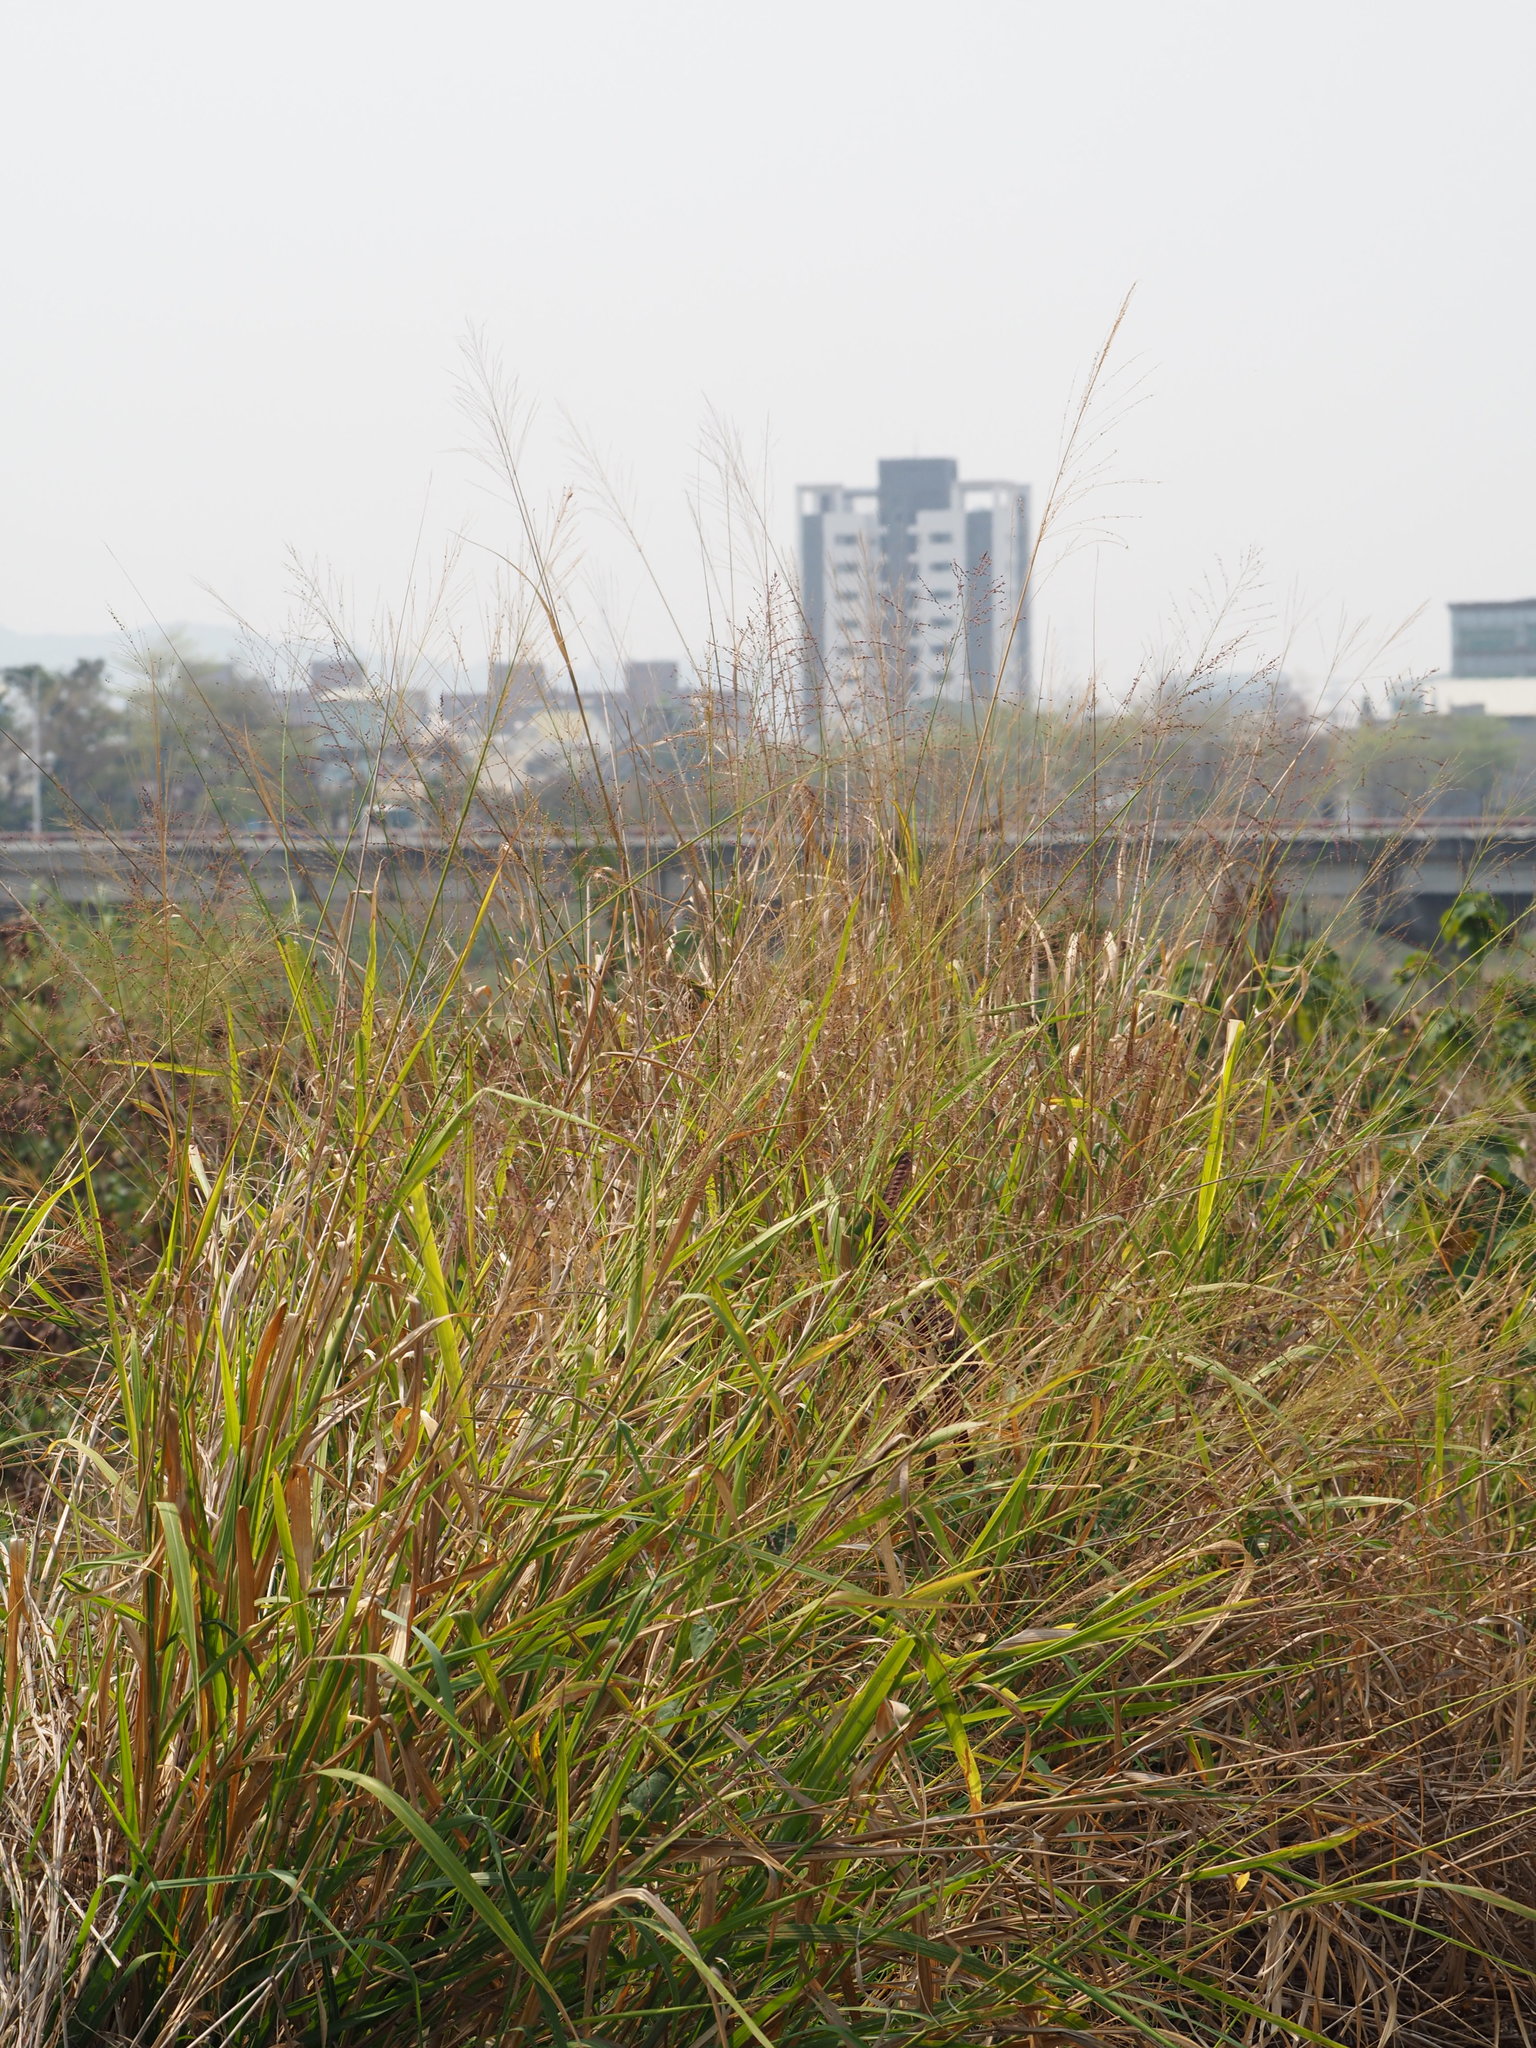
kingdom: Plantae
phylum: Tracheophyta
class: Liliopsida
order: Poales
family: Poaceae
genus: Megathyrsus
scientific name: Megathyrsus maximus
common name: Guineagrass
